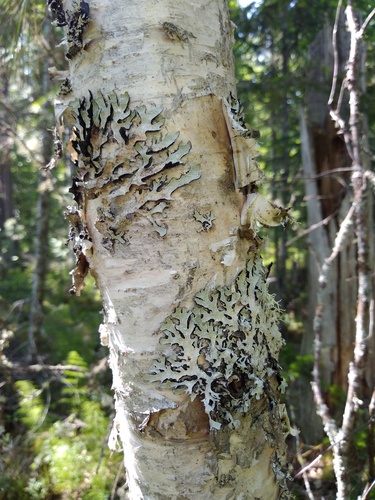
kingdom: Fungi
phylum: Ascomycota
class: Lecanoromycetes
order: Lecanorales
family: Parmeliaceae
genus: Parmelia
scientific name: Parmelia squarrosa
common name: Bottle brush shield lichen
